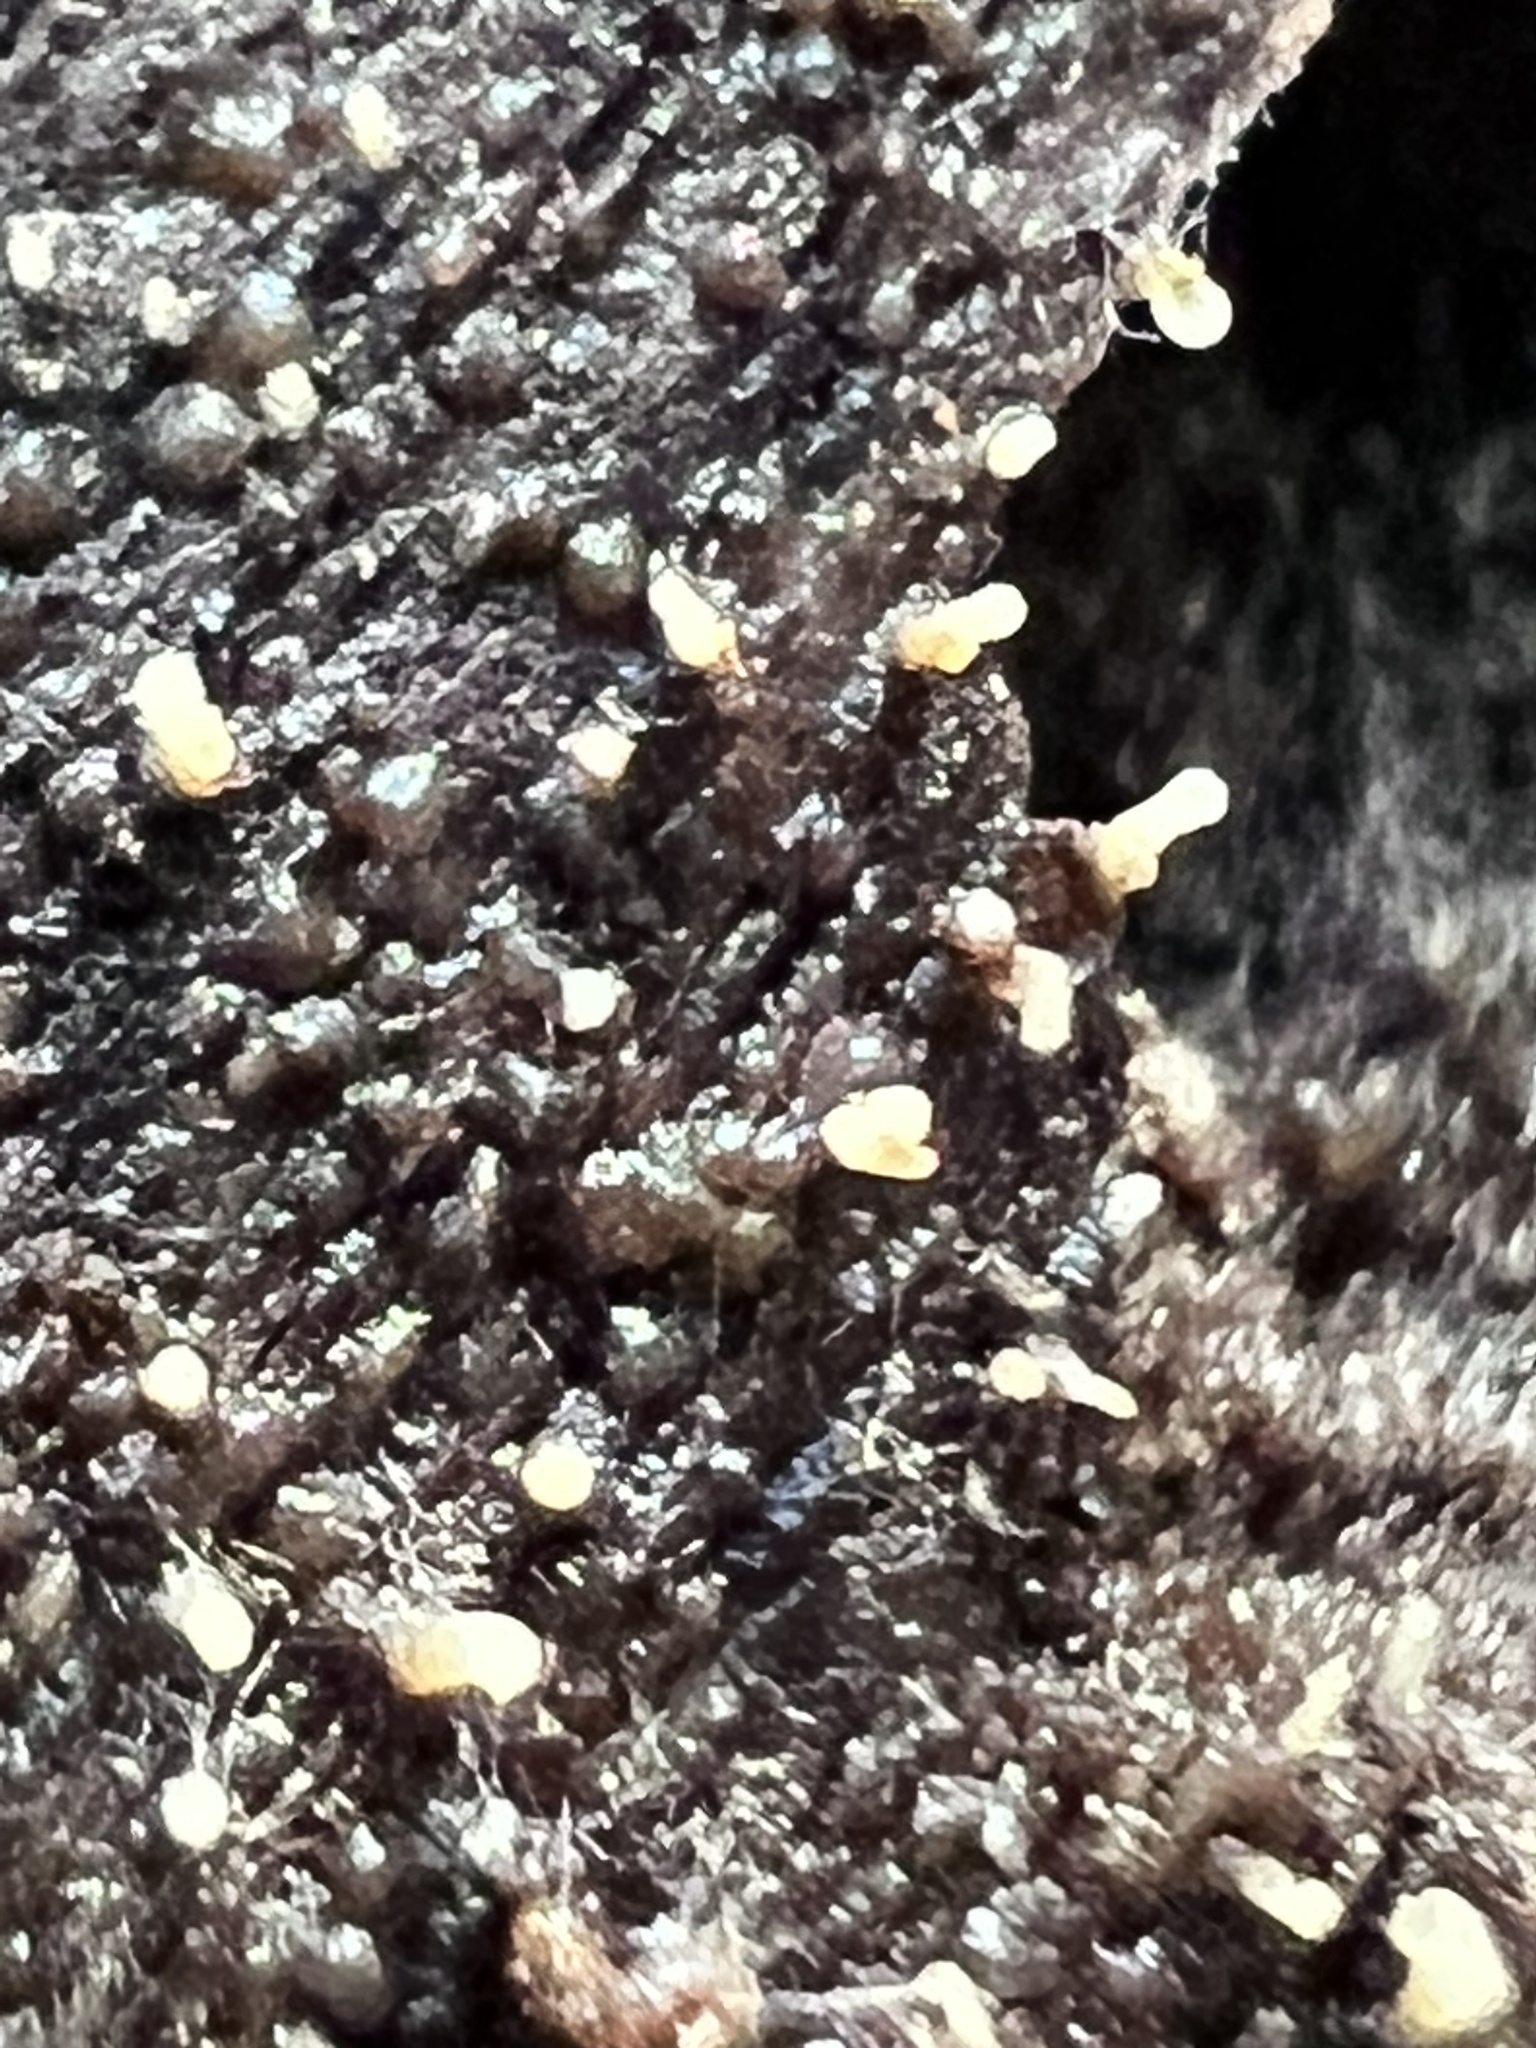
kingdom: Fungi
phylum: Ascomycota
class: Leotiomycetes
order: Helotiales
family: Dermateaceae
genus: Everhartia
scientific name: Everhartia lignatilis
